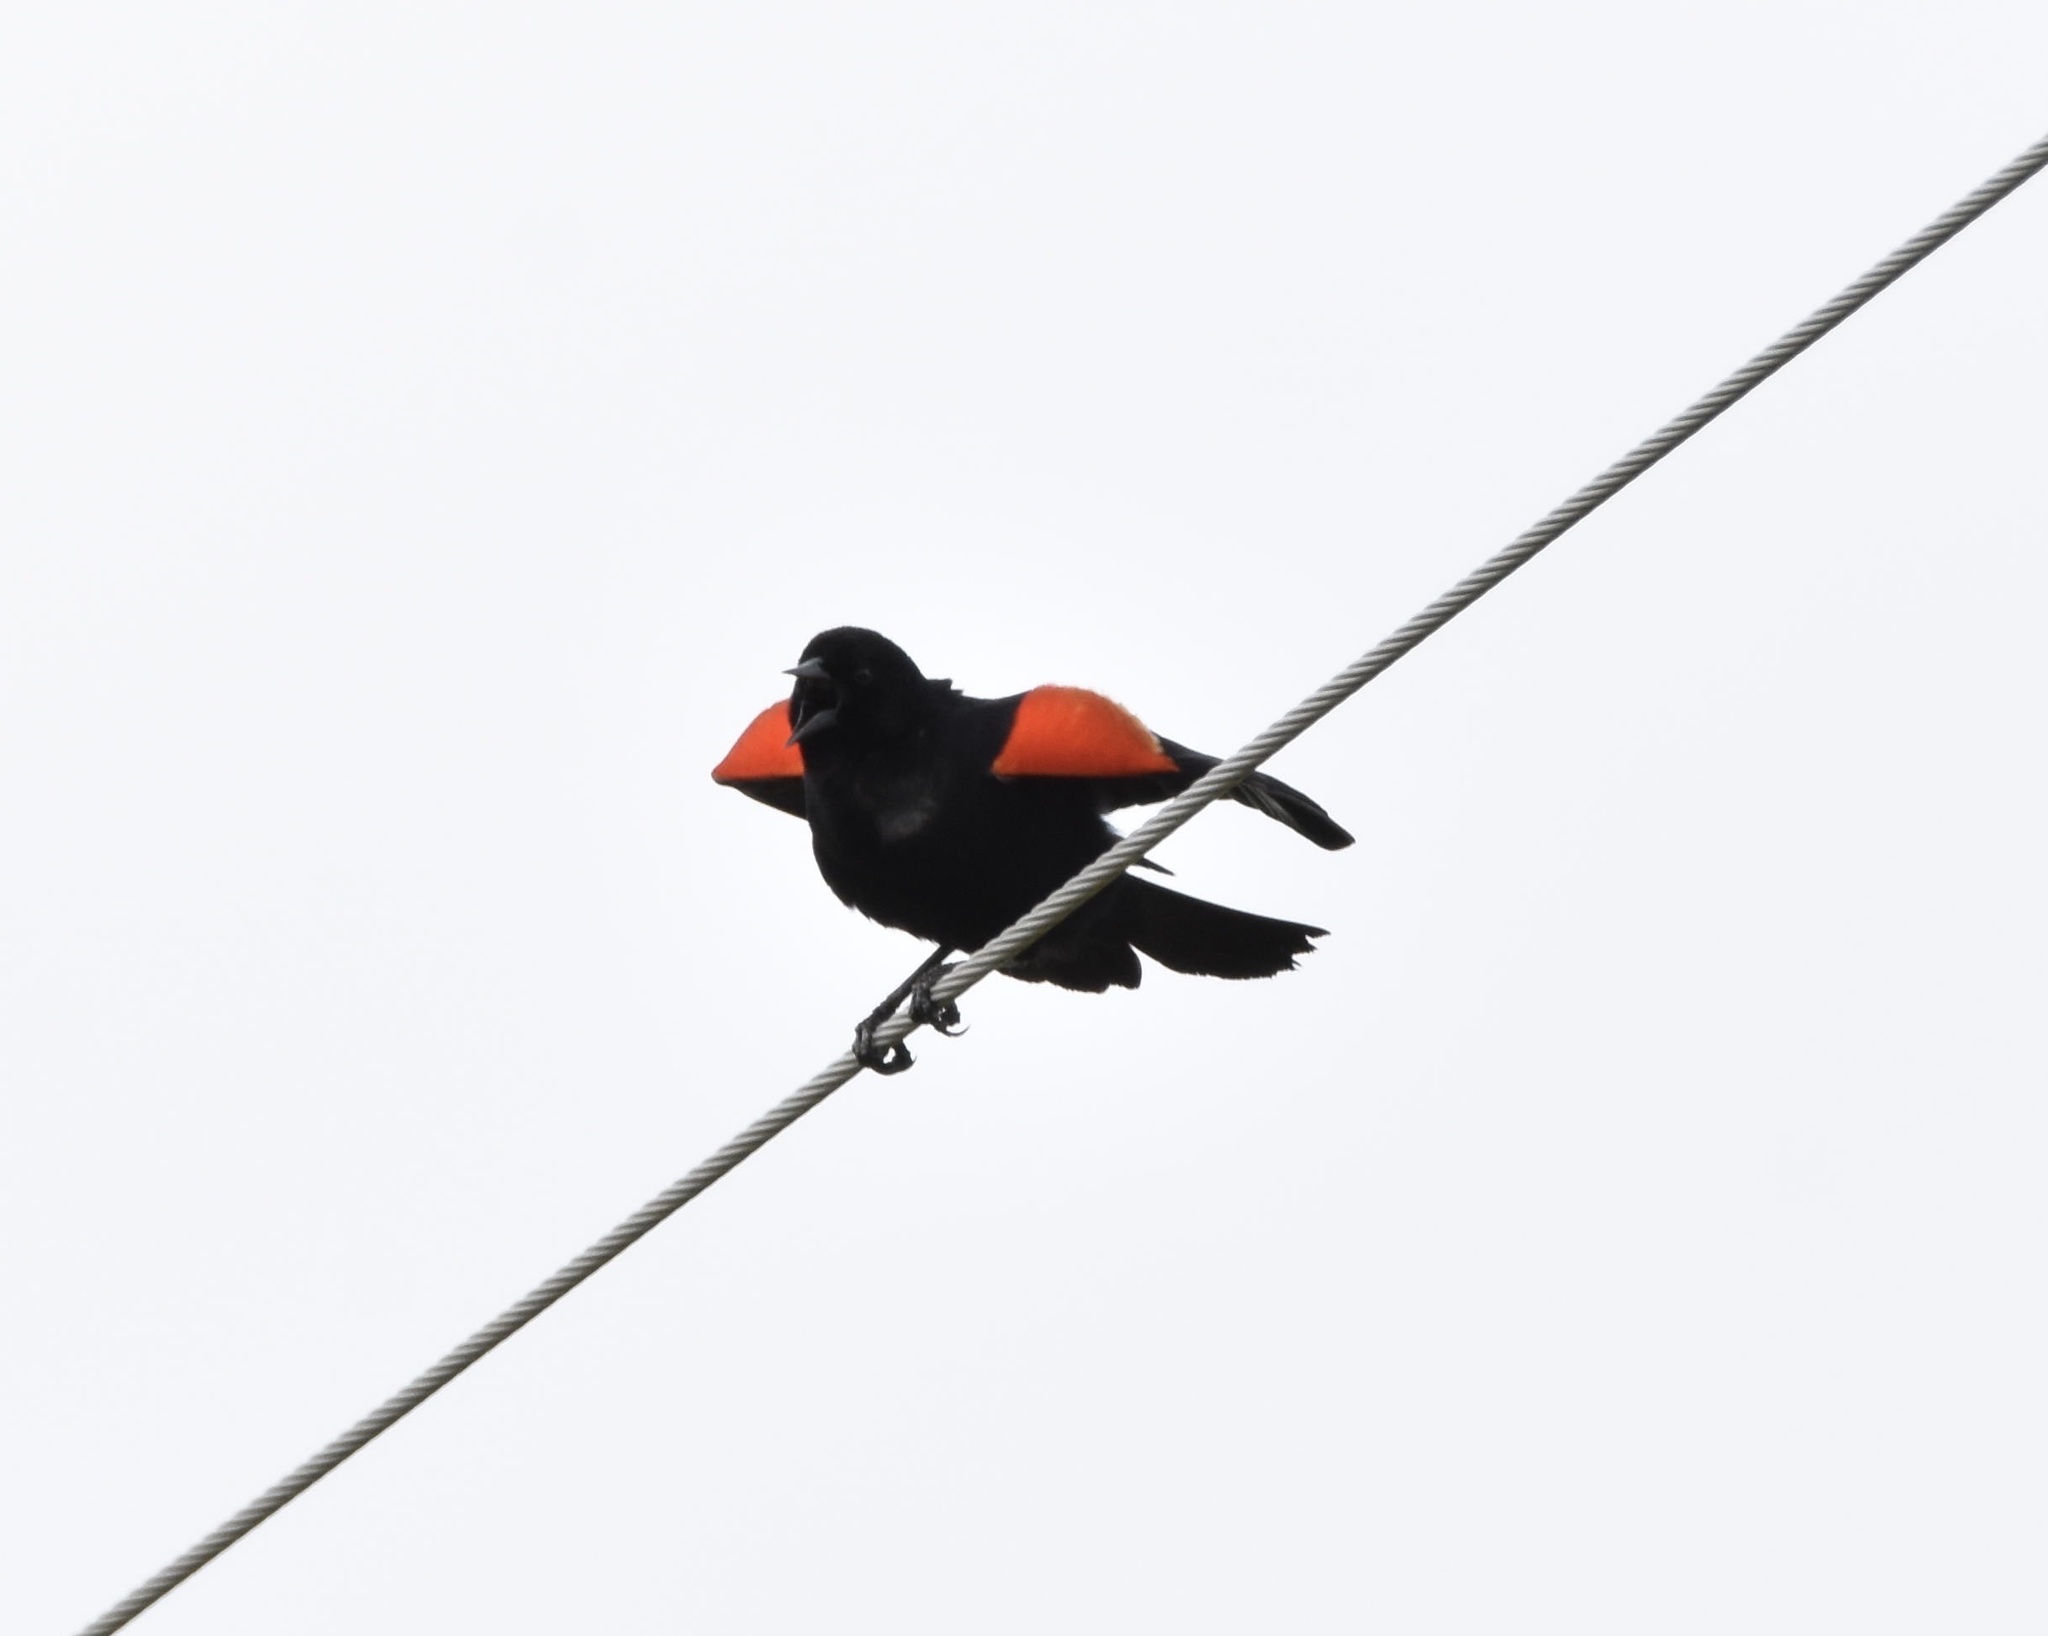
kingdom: Animalia
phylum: Chordata
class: Aves
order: Passeriformes
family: Icteridae
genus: Agelaius
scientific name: Agelaius phoeniceus
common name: Red-winged blackbird
